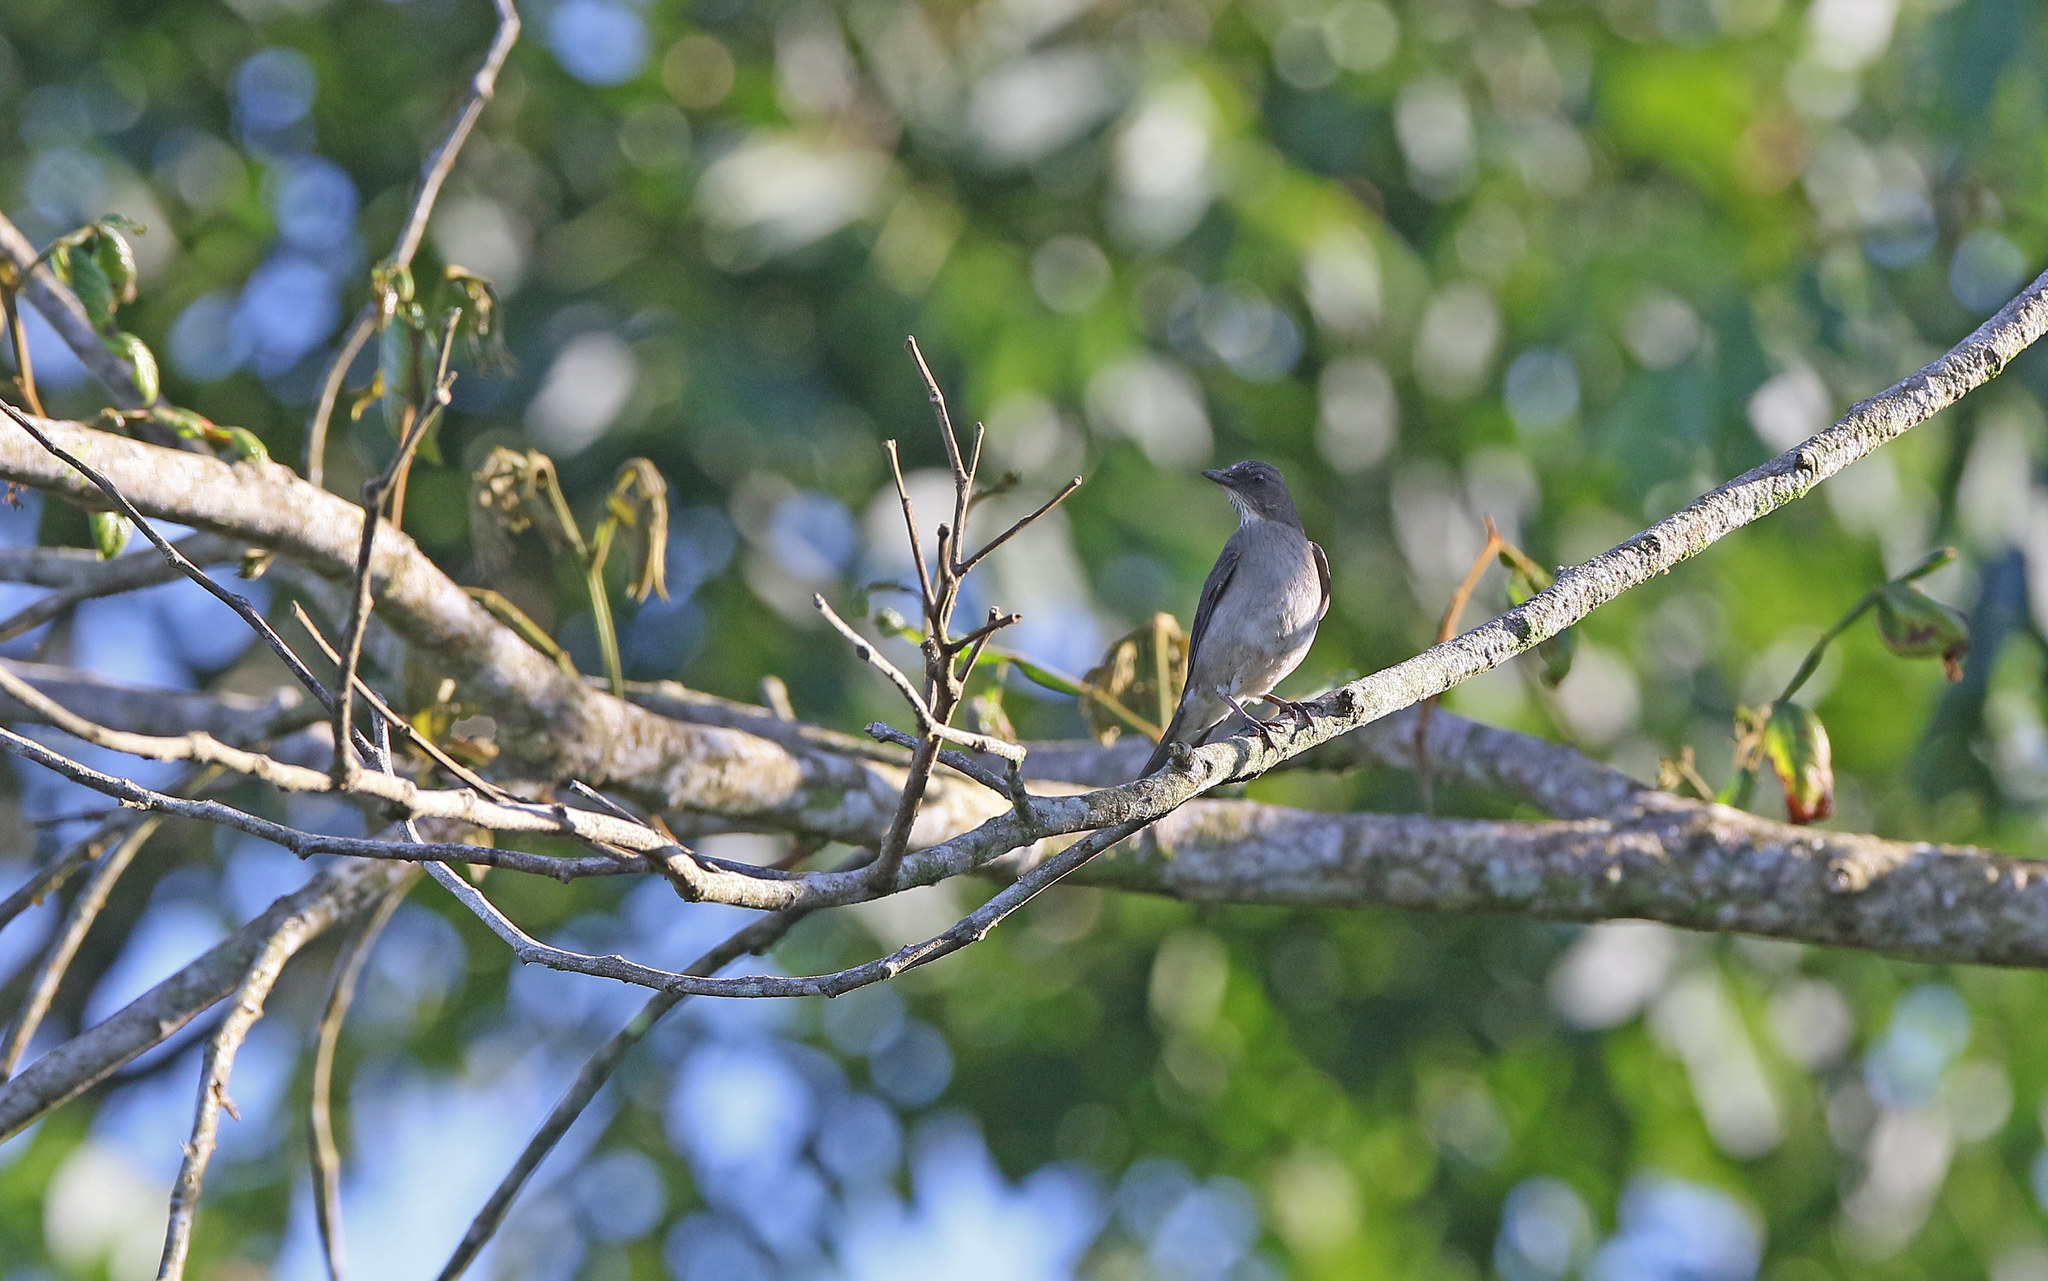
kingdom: Animalia
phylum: Chordata
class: Aves
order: Passeriformes
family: Turdidae
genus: Turdus
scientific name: Turdus ignobilis
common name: Black-billed thrush
